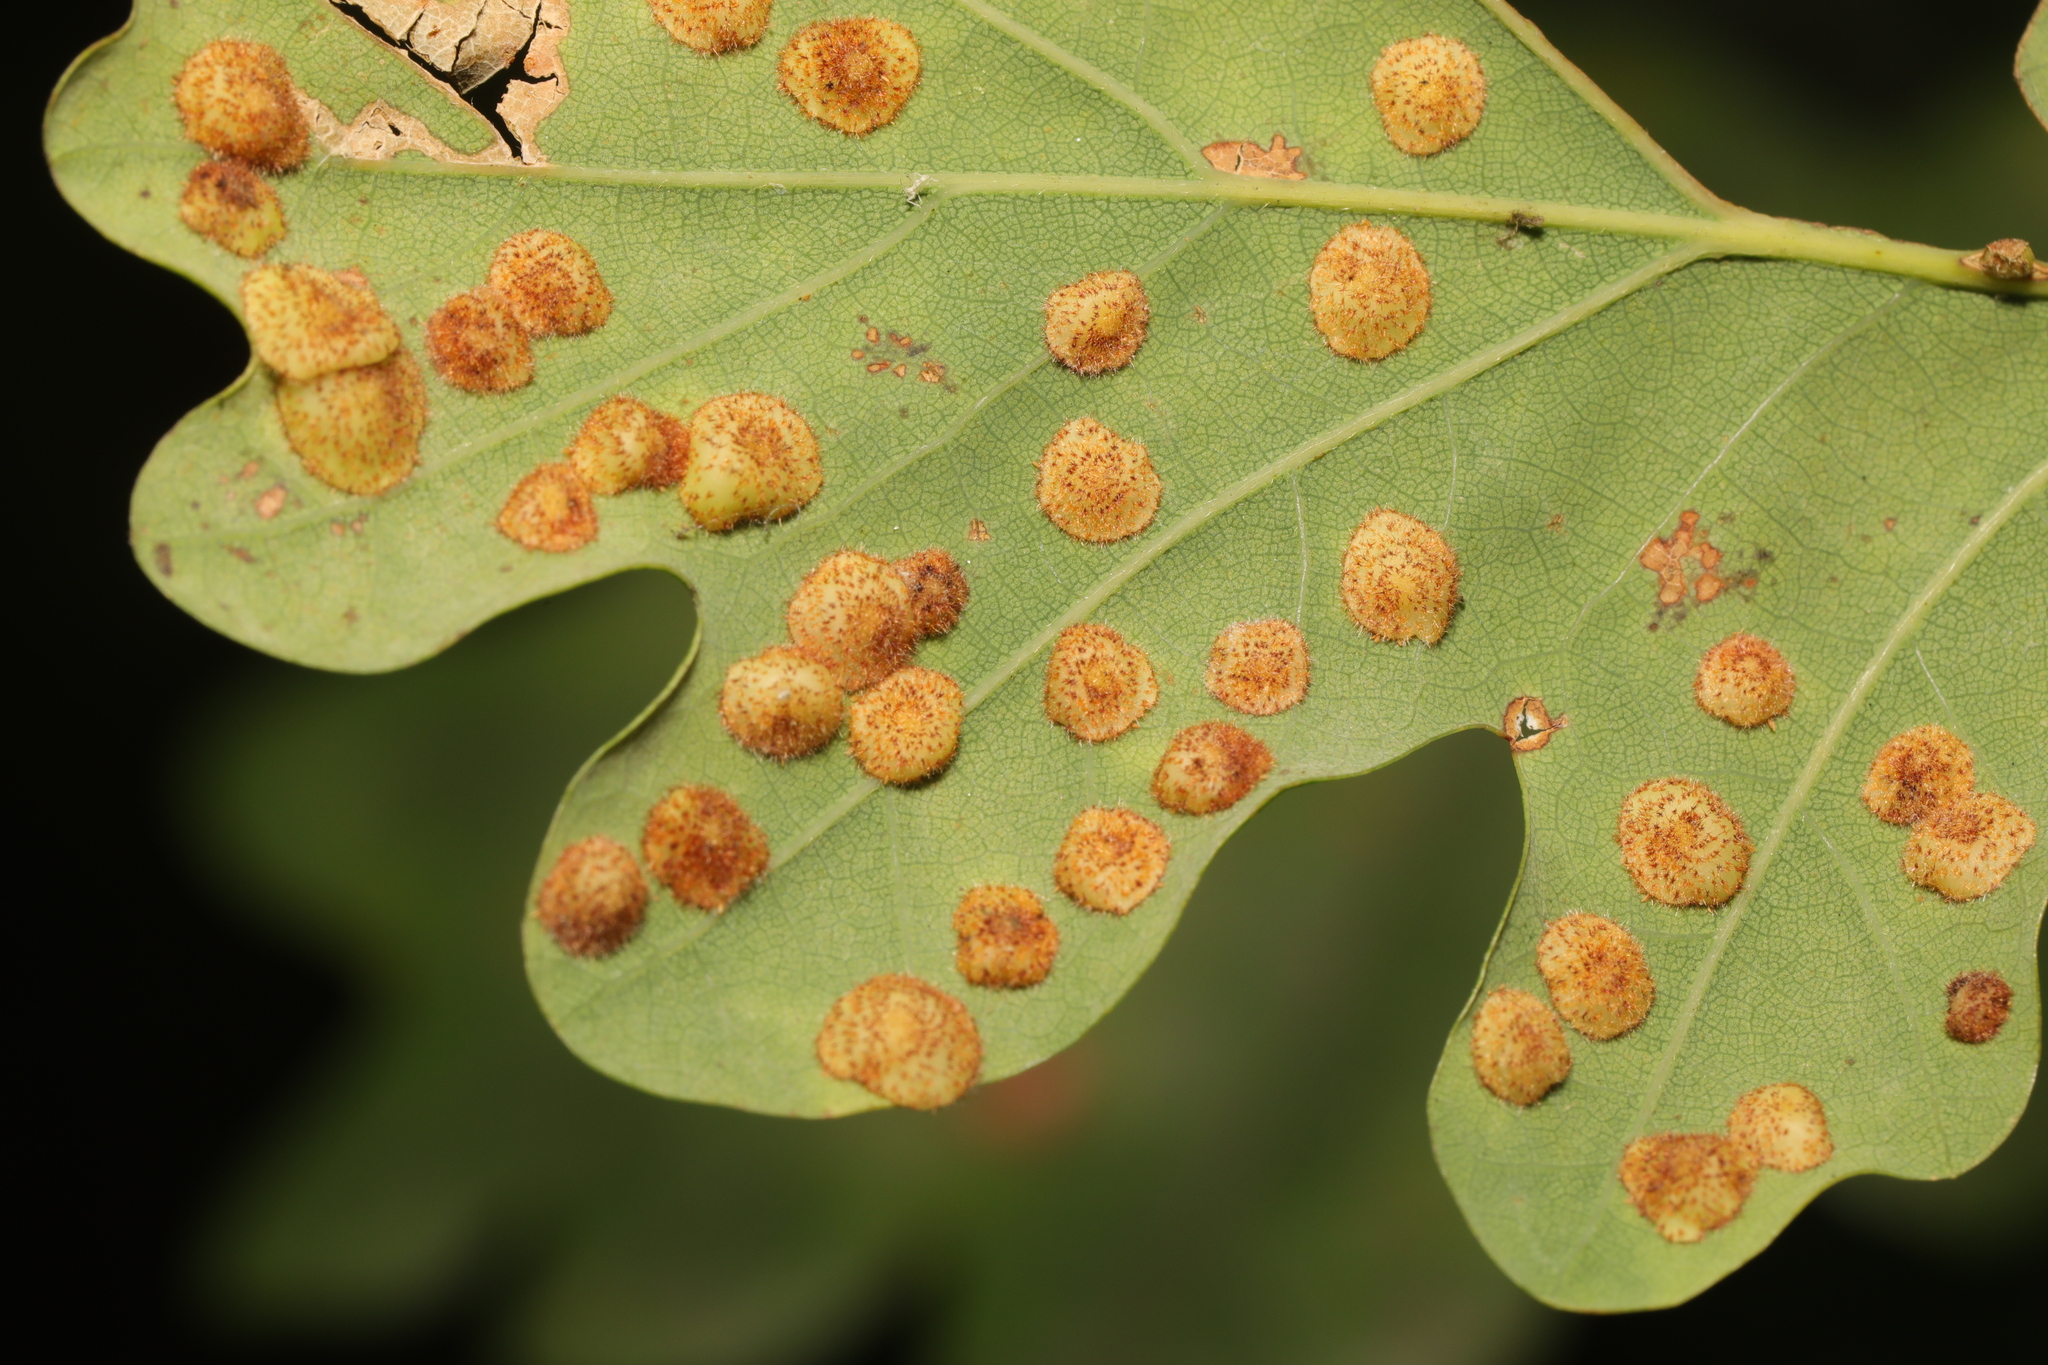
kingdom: Animalia
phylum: Arthropoda
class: Insecta
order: Hymenoptera
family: Cynipidae
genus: Neuroterus
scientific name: Neuroterus quercusbaccarum
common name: Common spangle gall
